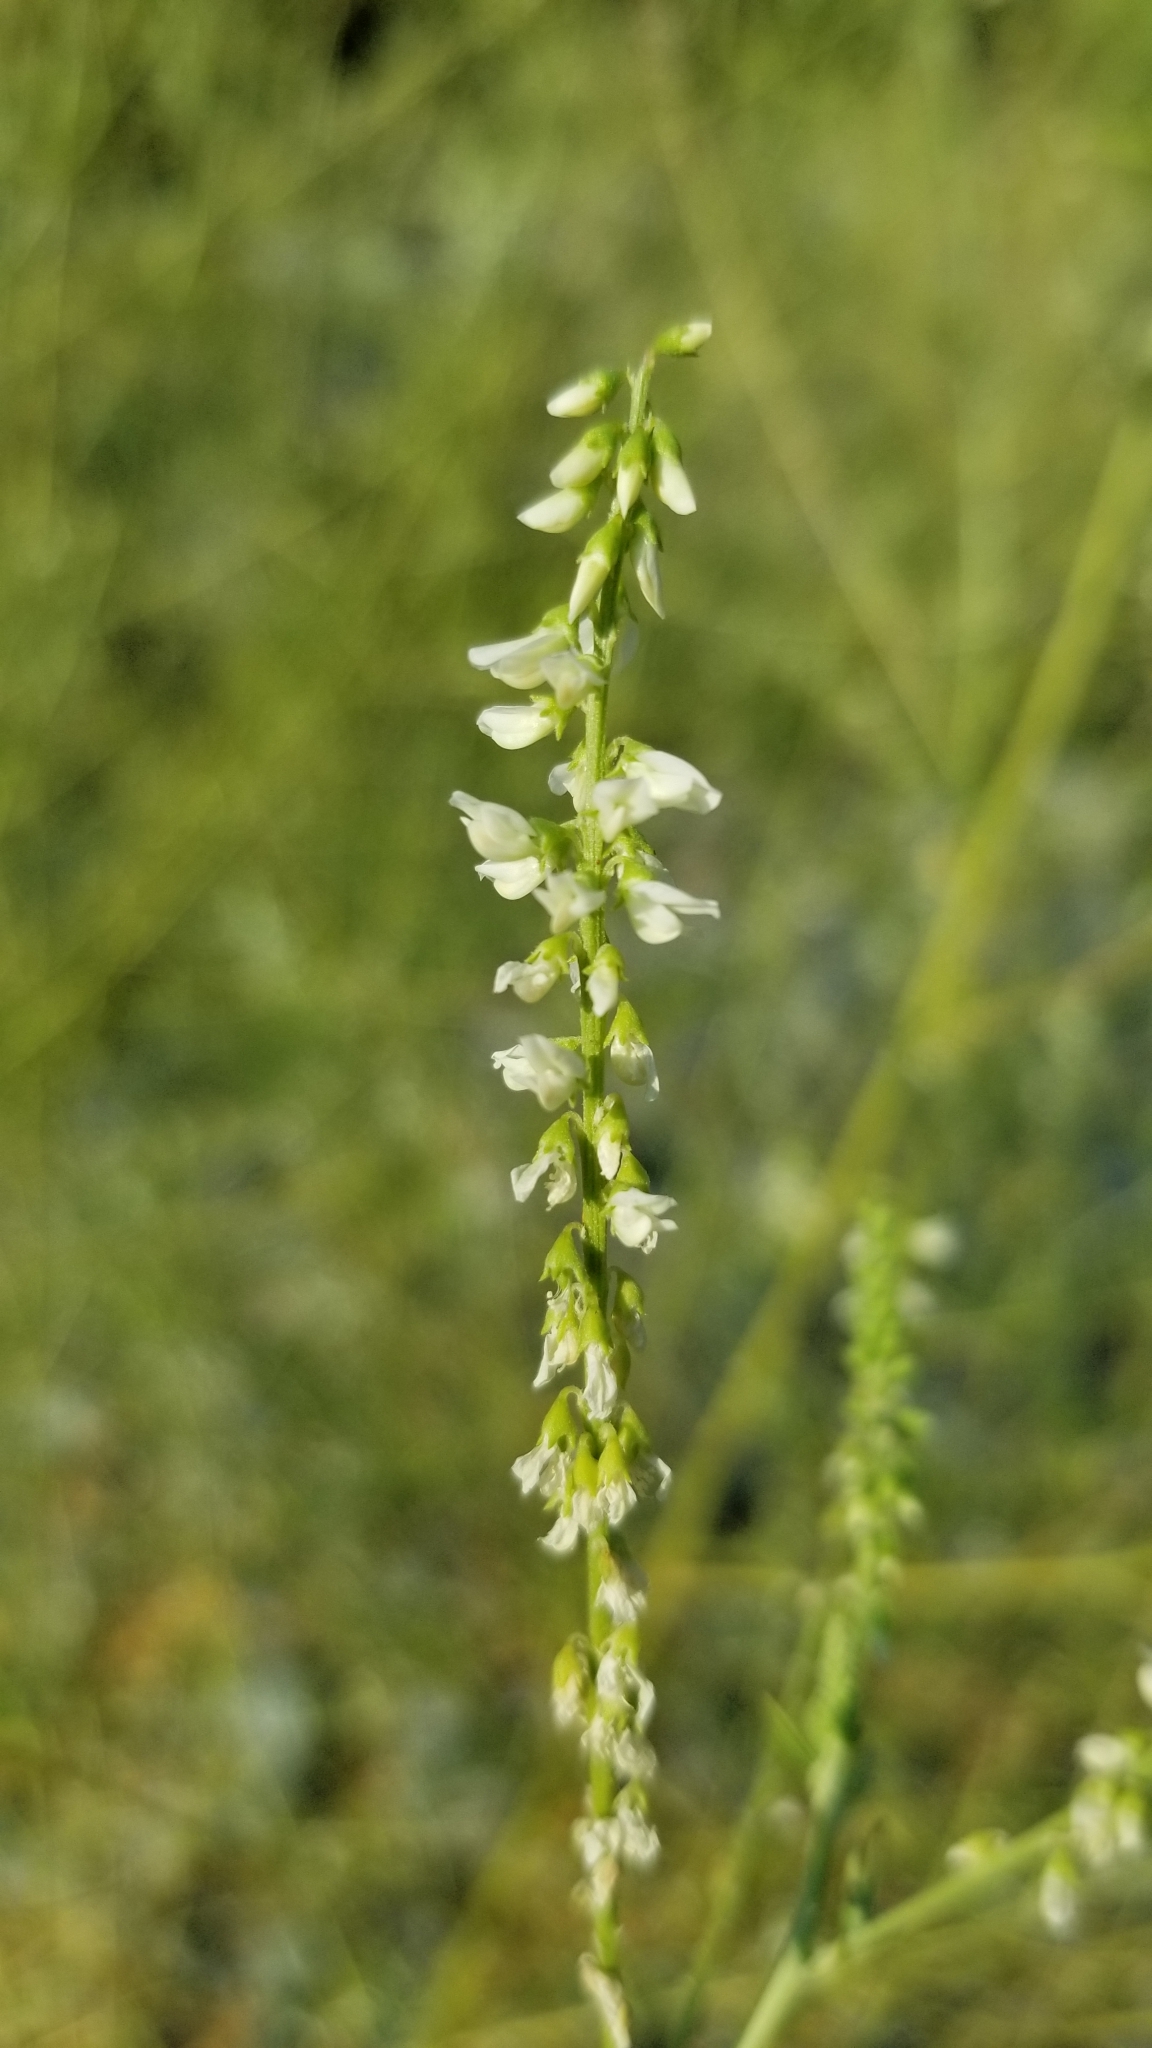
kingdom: Plantae
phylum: Tracheophyta
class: Magnoliopsida
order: Fabales
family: Fabaceae
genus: Melilotus
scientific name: Melilotus albus
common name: White melilot
